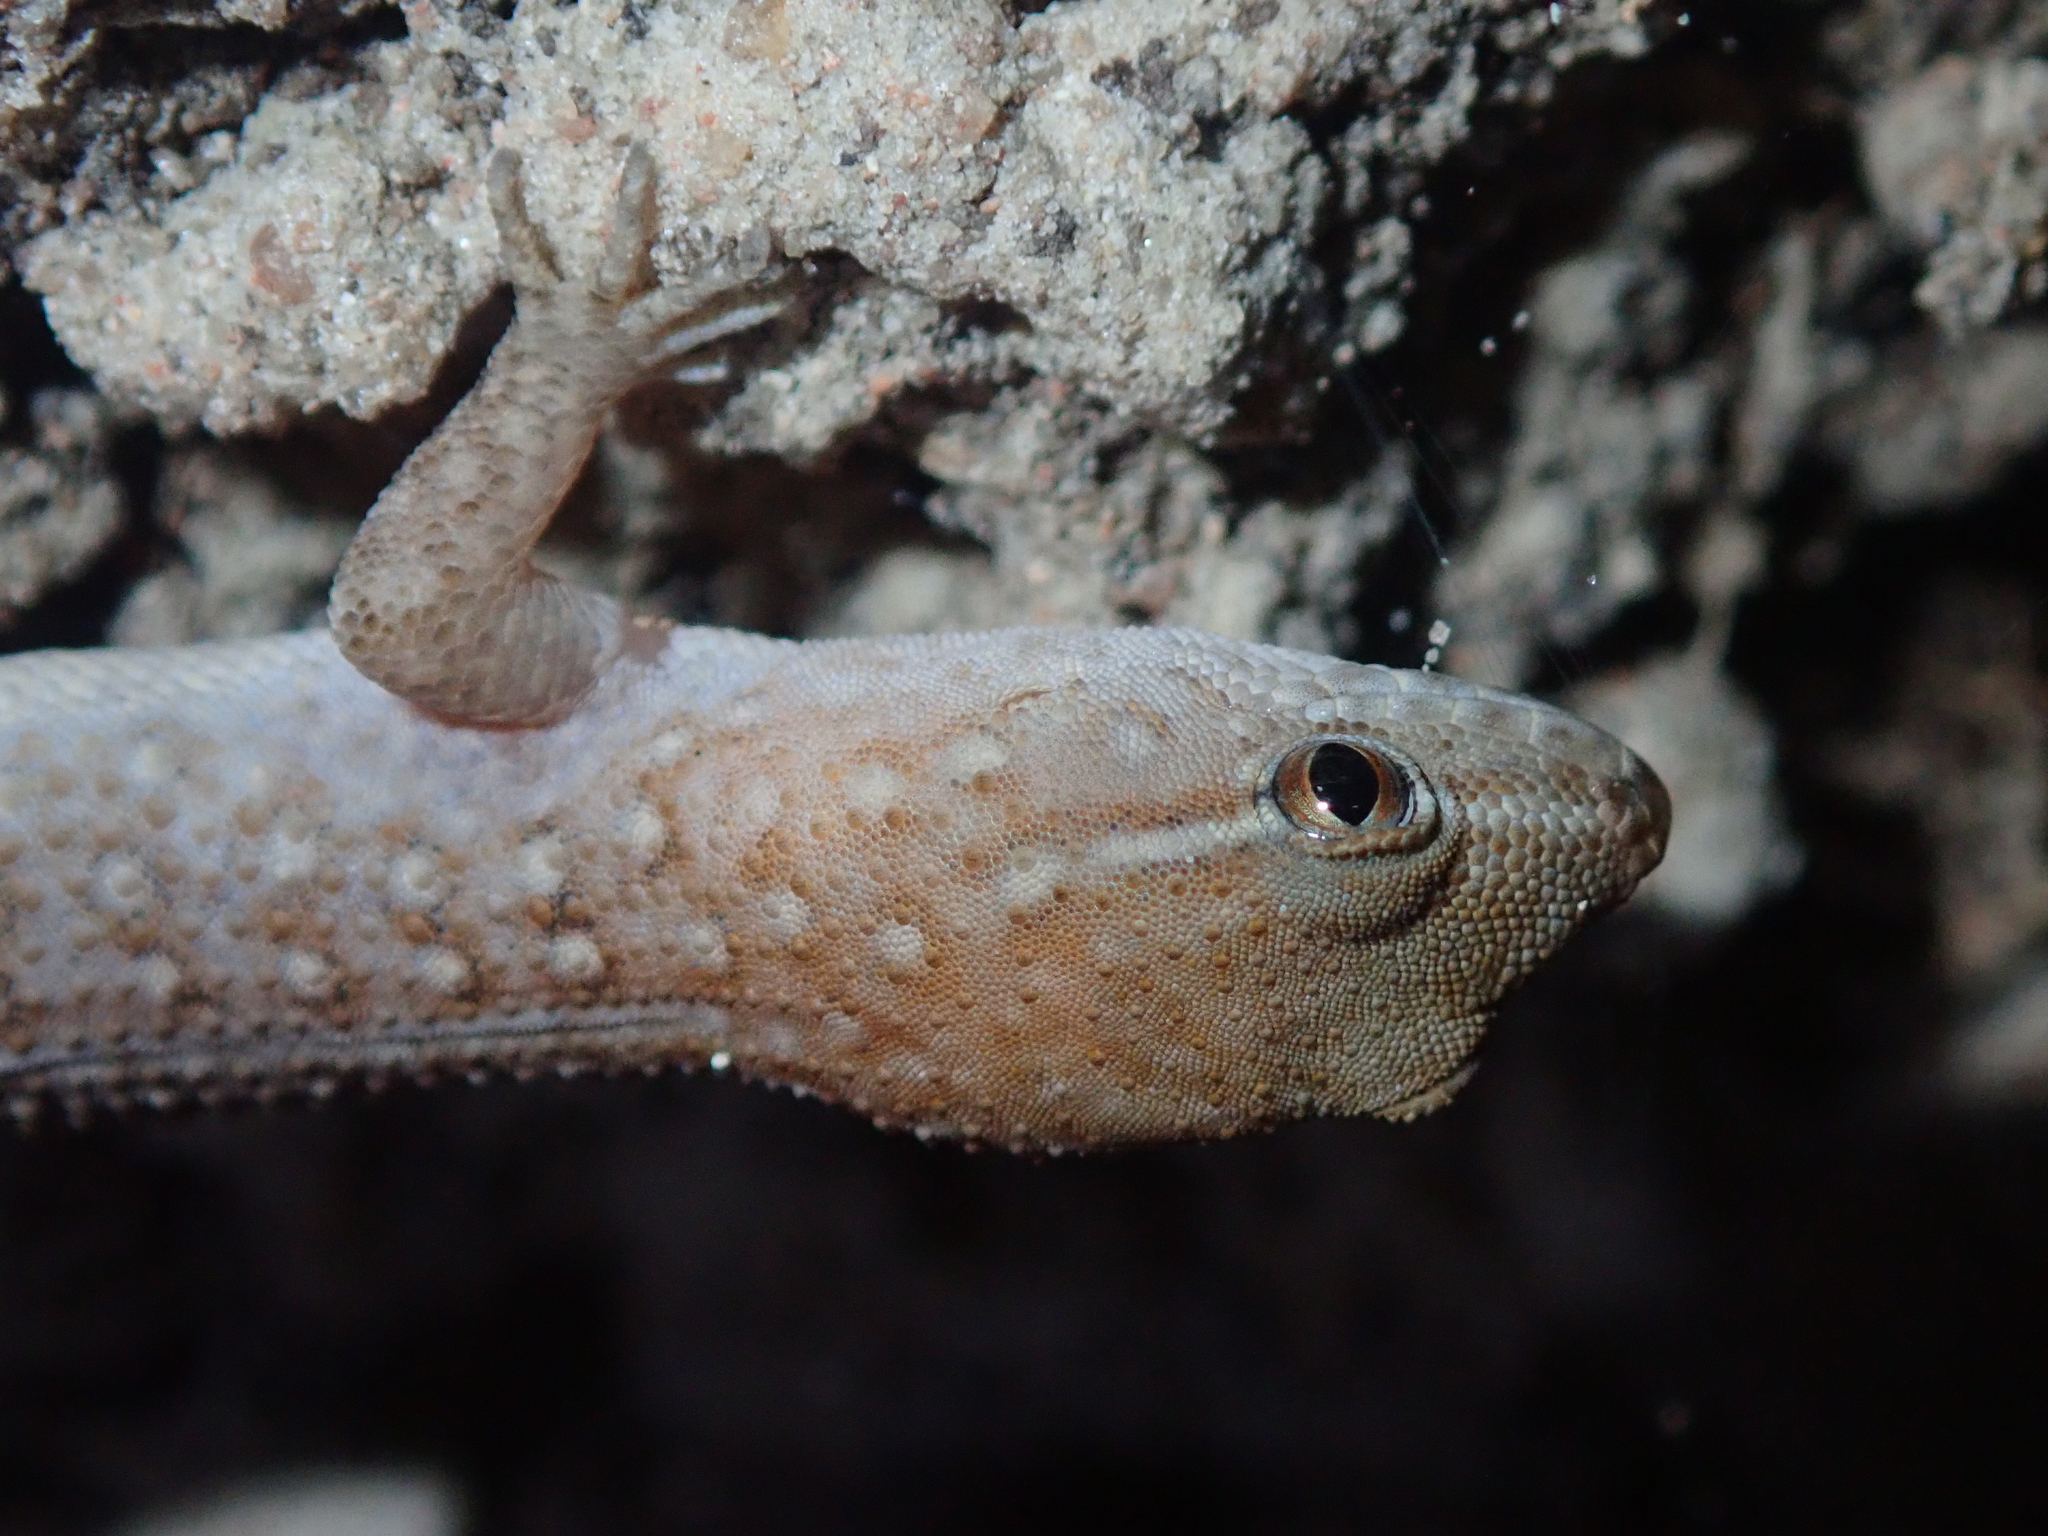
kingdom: Animalia
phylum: Chordata
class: Squamata
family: Phyllodactylidae
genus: Gymnodactylus
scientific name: Gymnodactylus amarali
